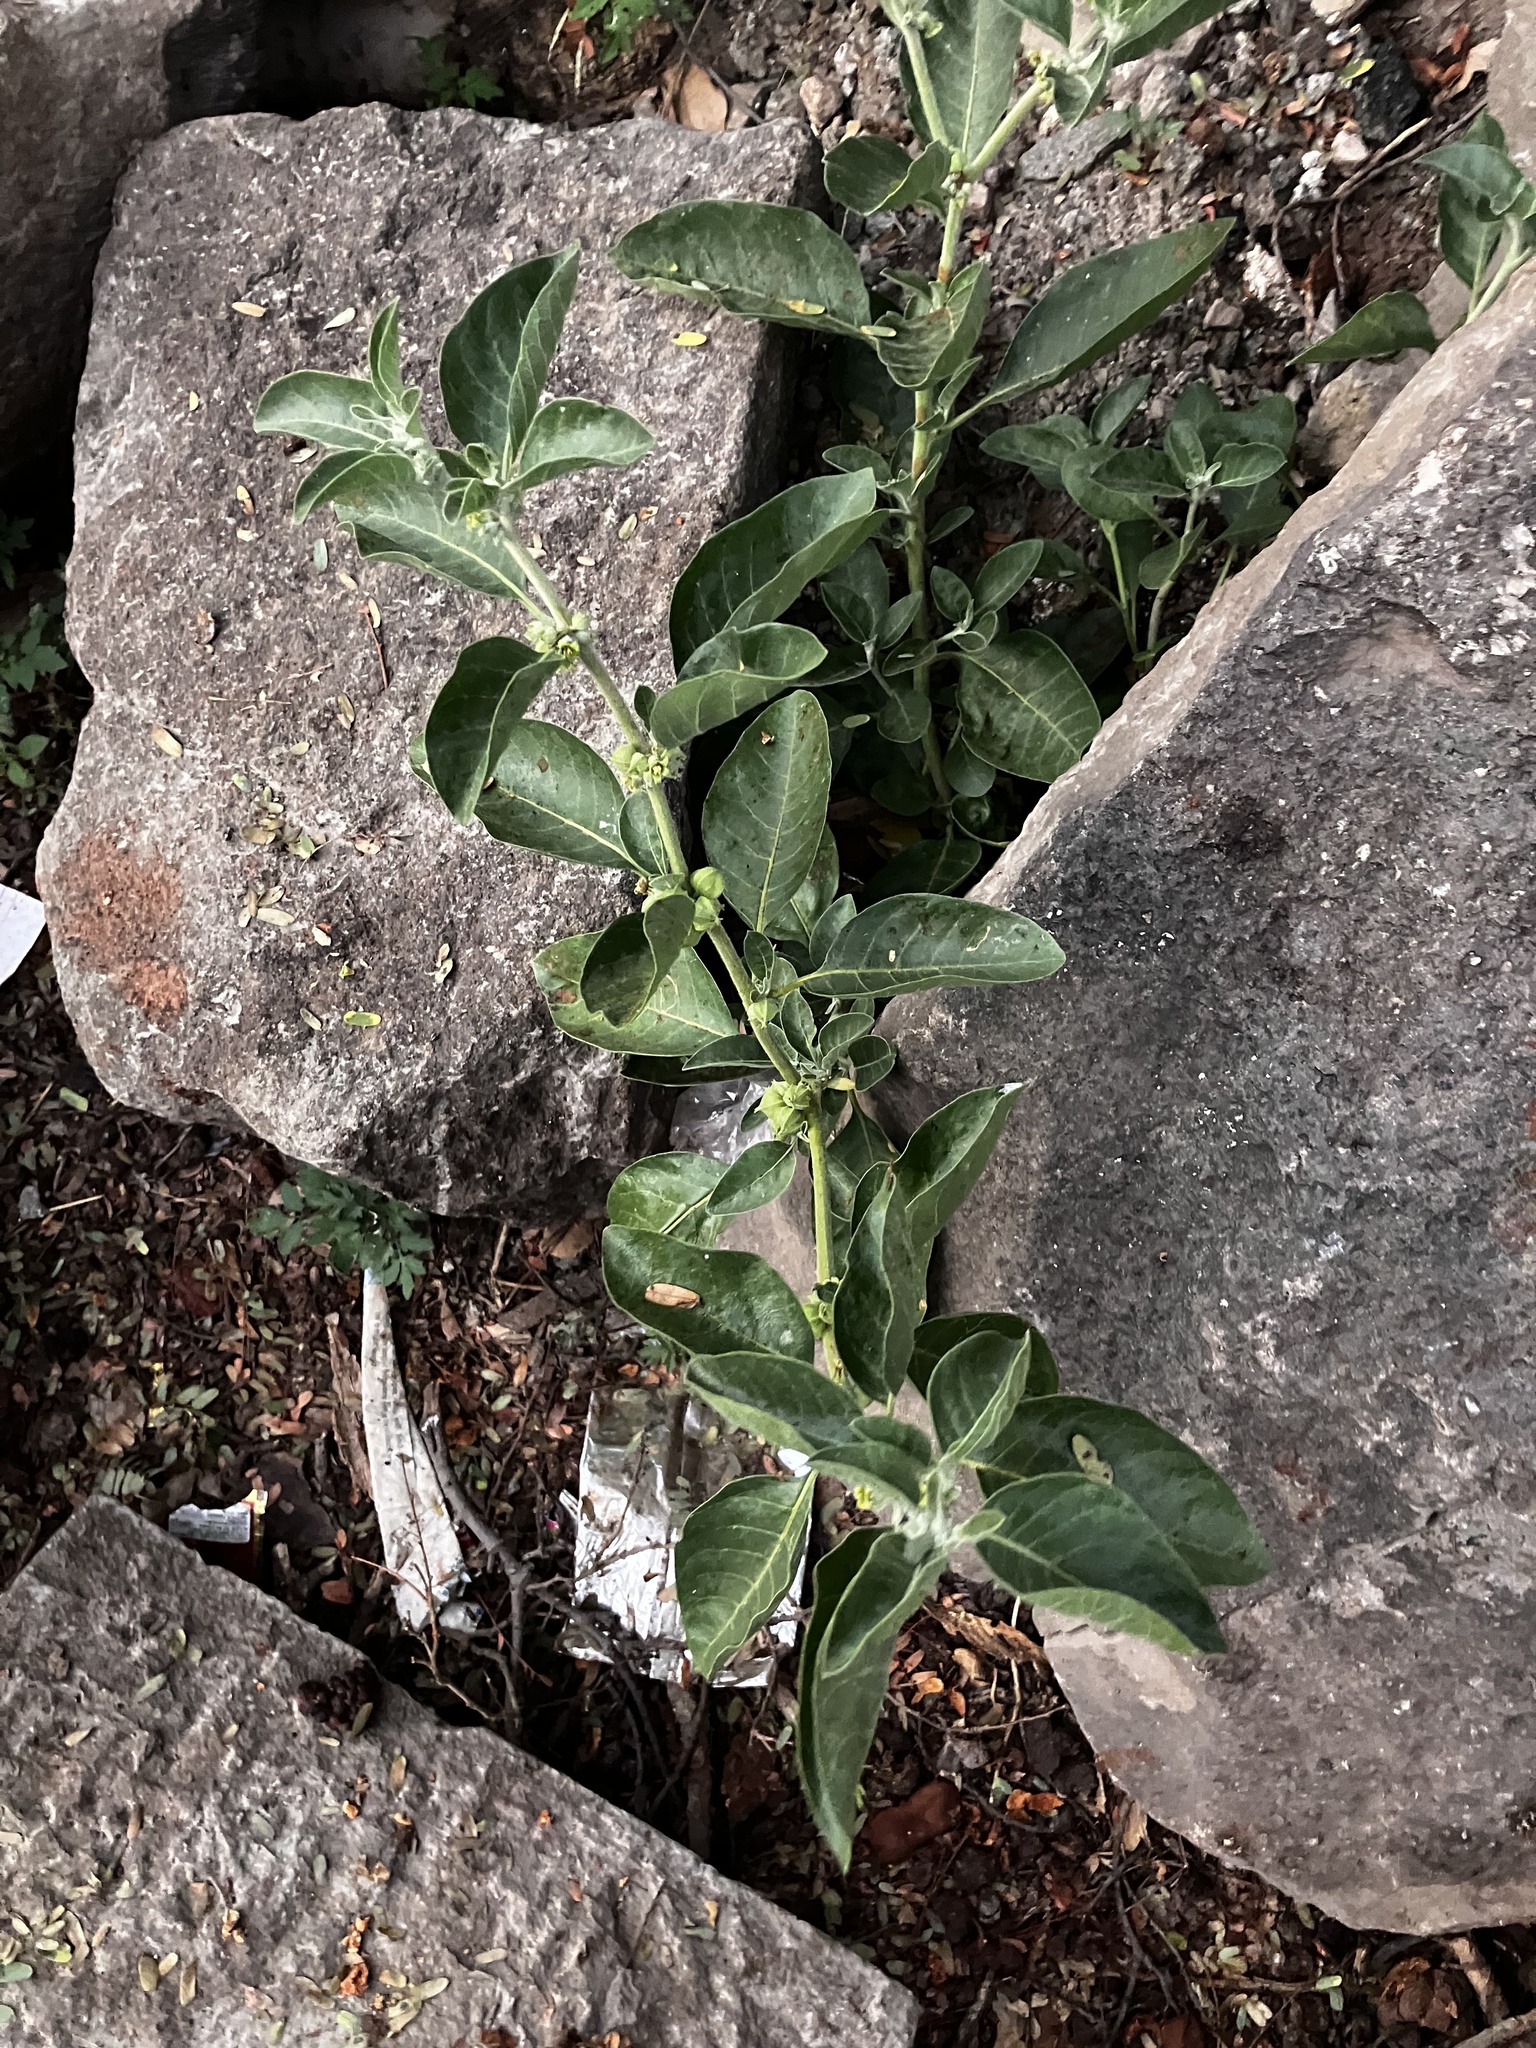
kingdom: Plantae
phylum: Tracheophyta
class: Magnoliopsida
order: Solanales
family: Solanaceae
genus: Withania
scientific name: Withania somnifera
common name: Winter-cherry
